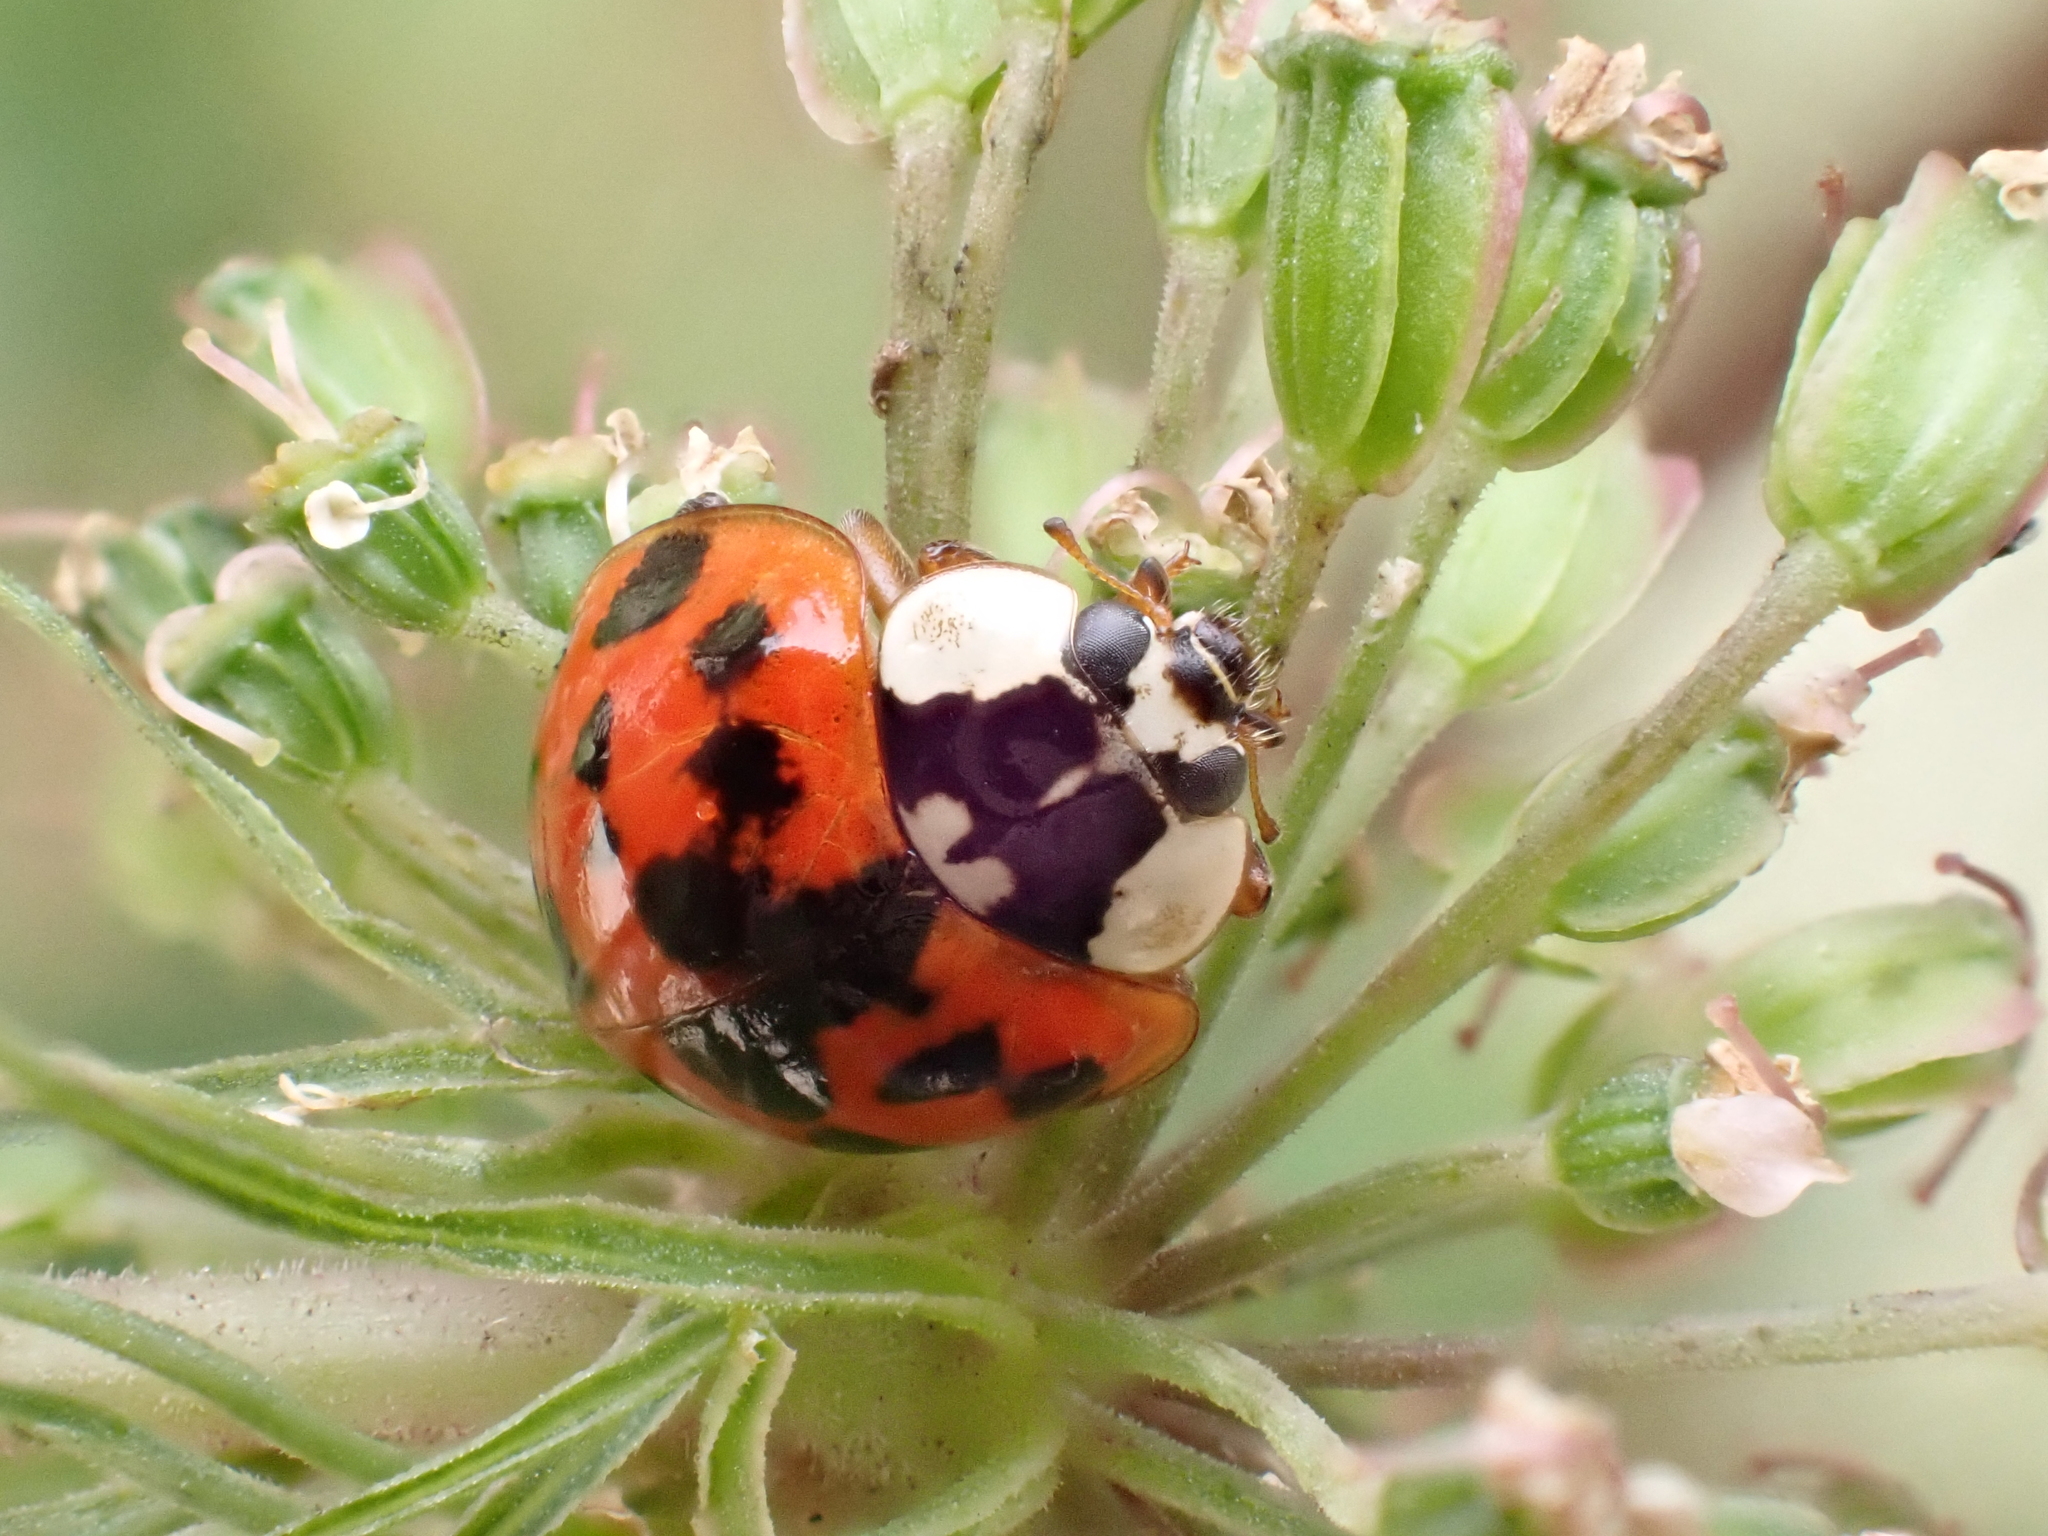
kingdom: Animalia
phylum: Arthropoda
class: Insecta
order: Coleoptera
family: Coccinellidae
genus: Harmonia
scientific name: Harmonia axyridis
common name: Harlequin ladybird
